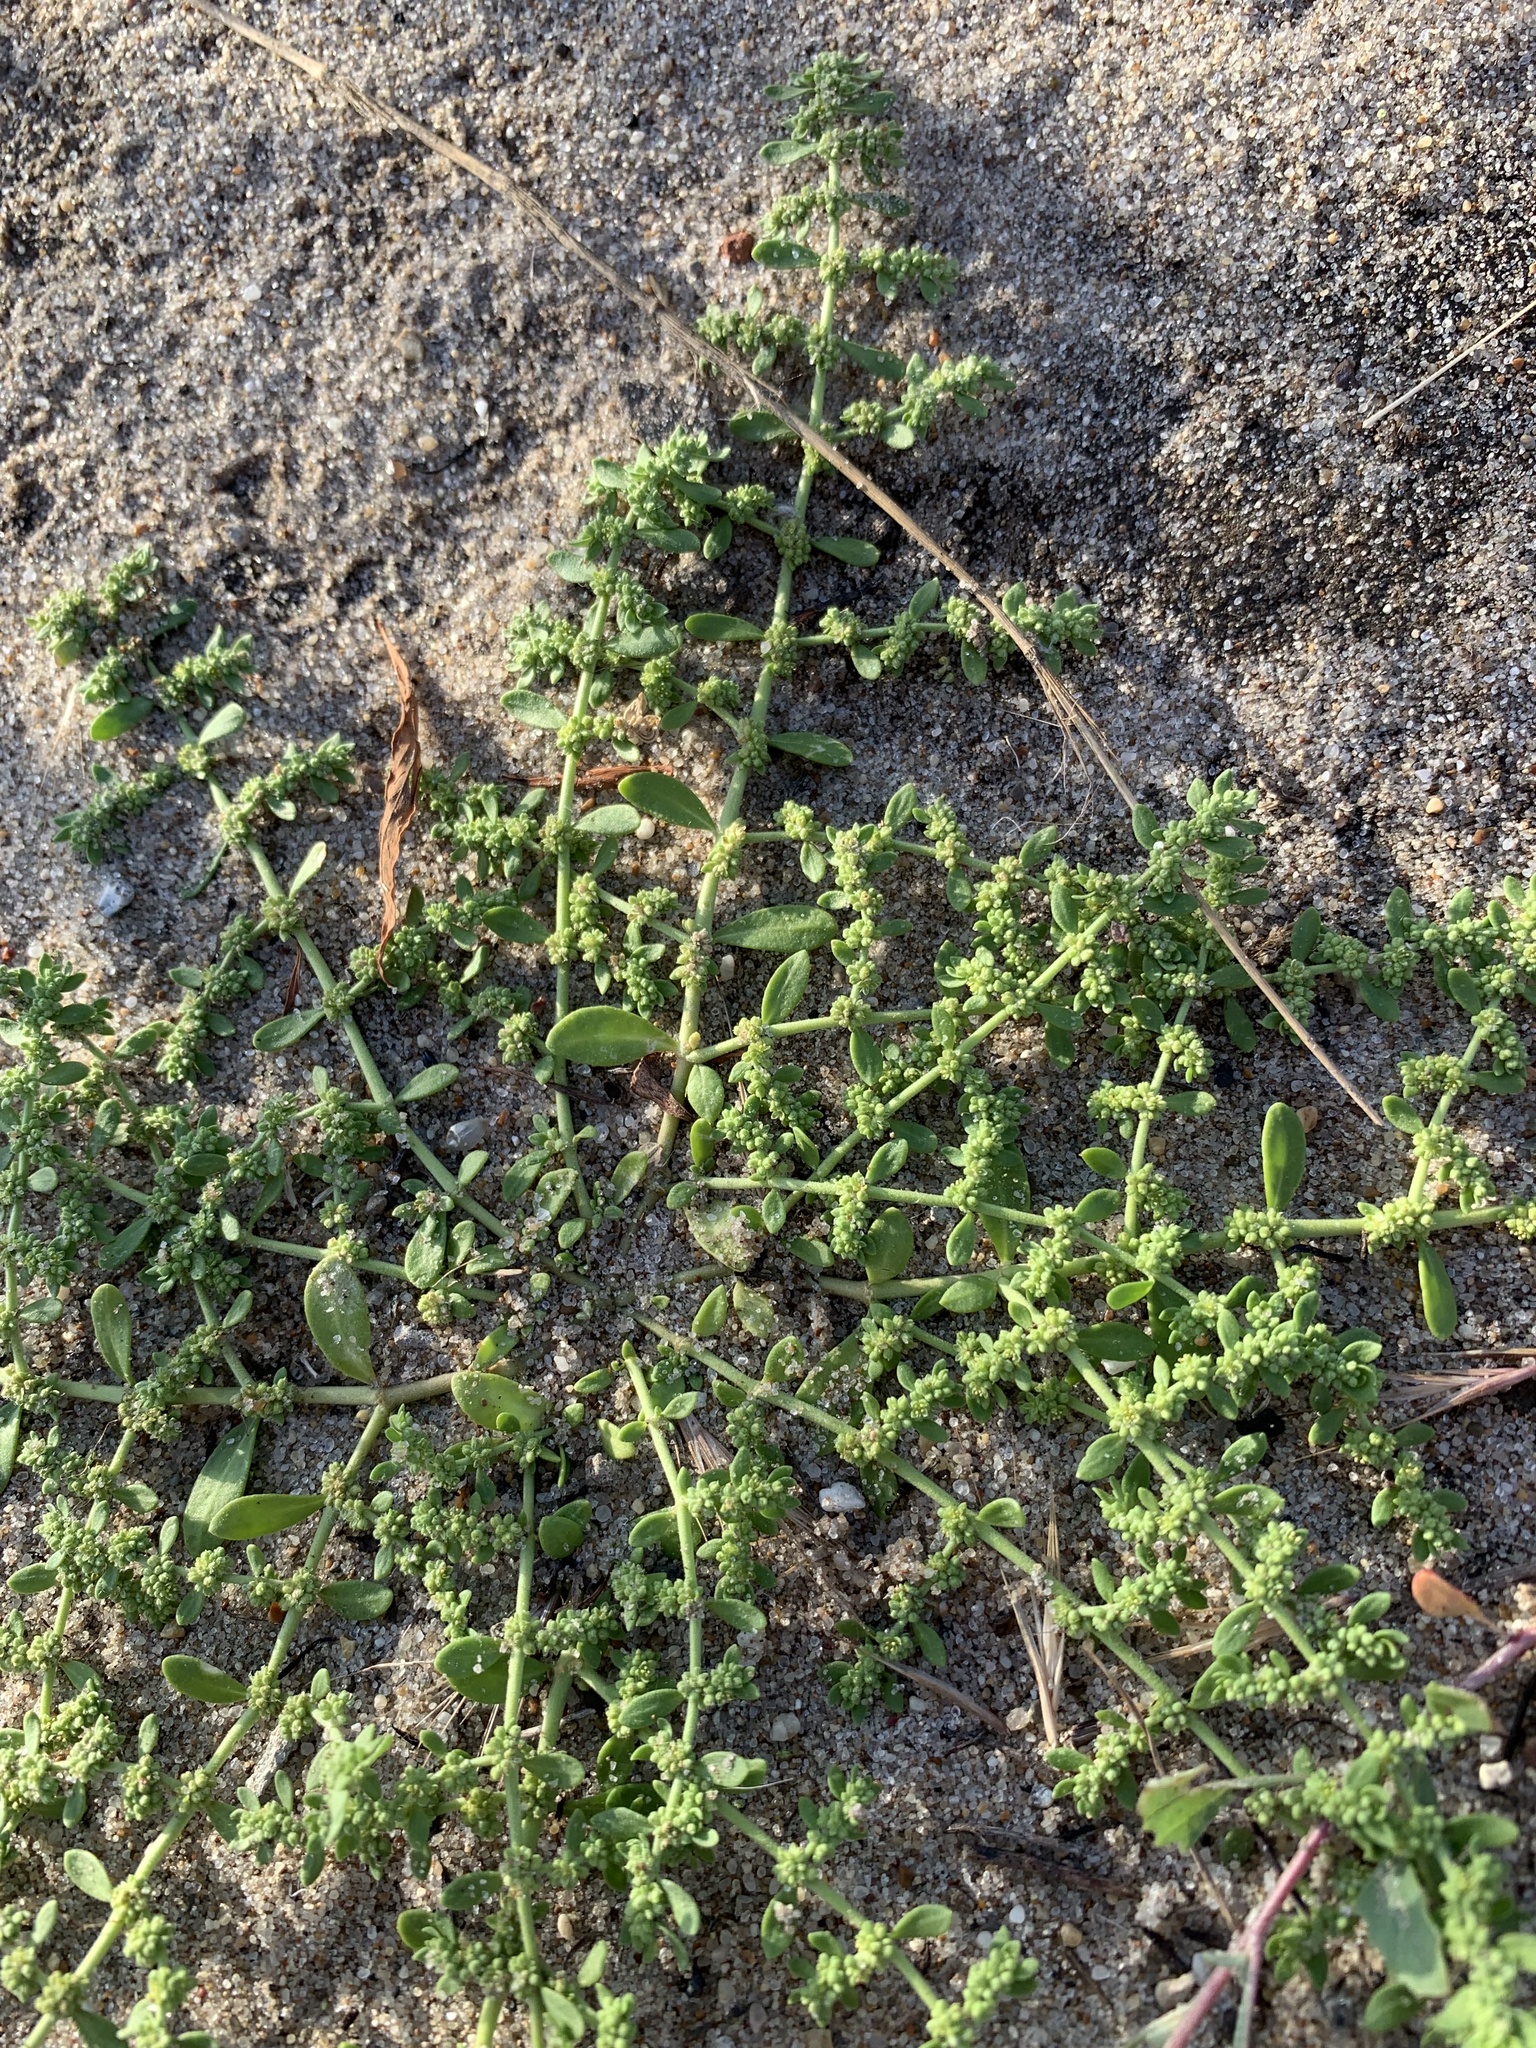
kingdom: Plantae
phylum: Tracheophyta
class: Magnoliopsida
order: Caryophyllales
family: Caryophyllaceae
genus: Herniaria
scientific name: Herniaria polygama
